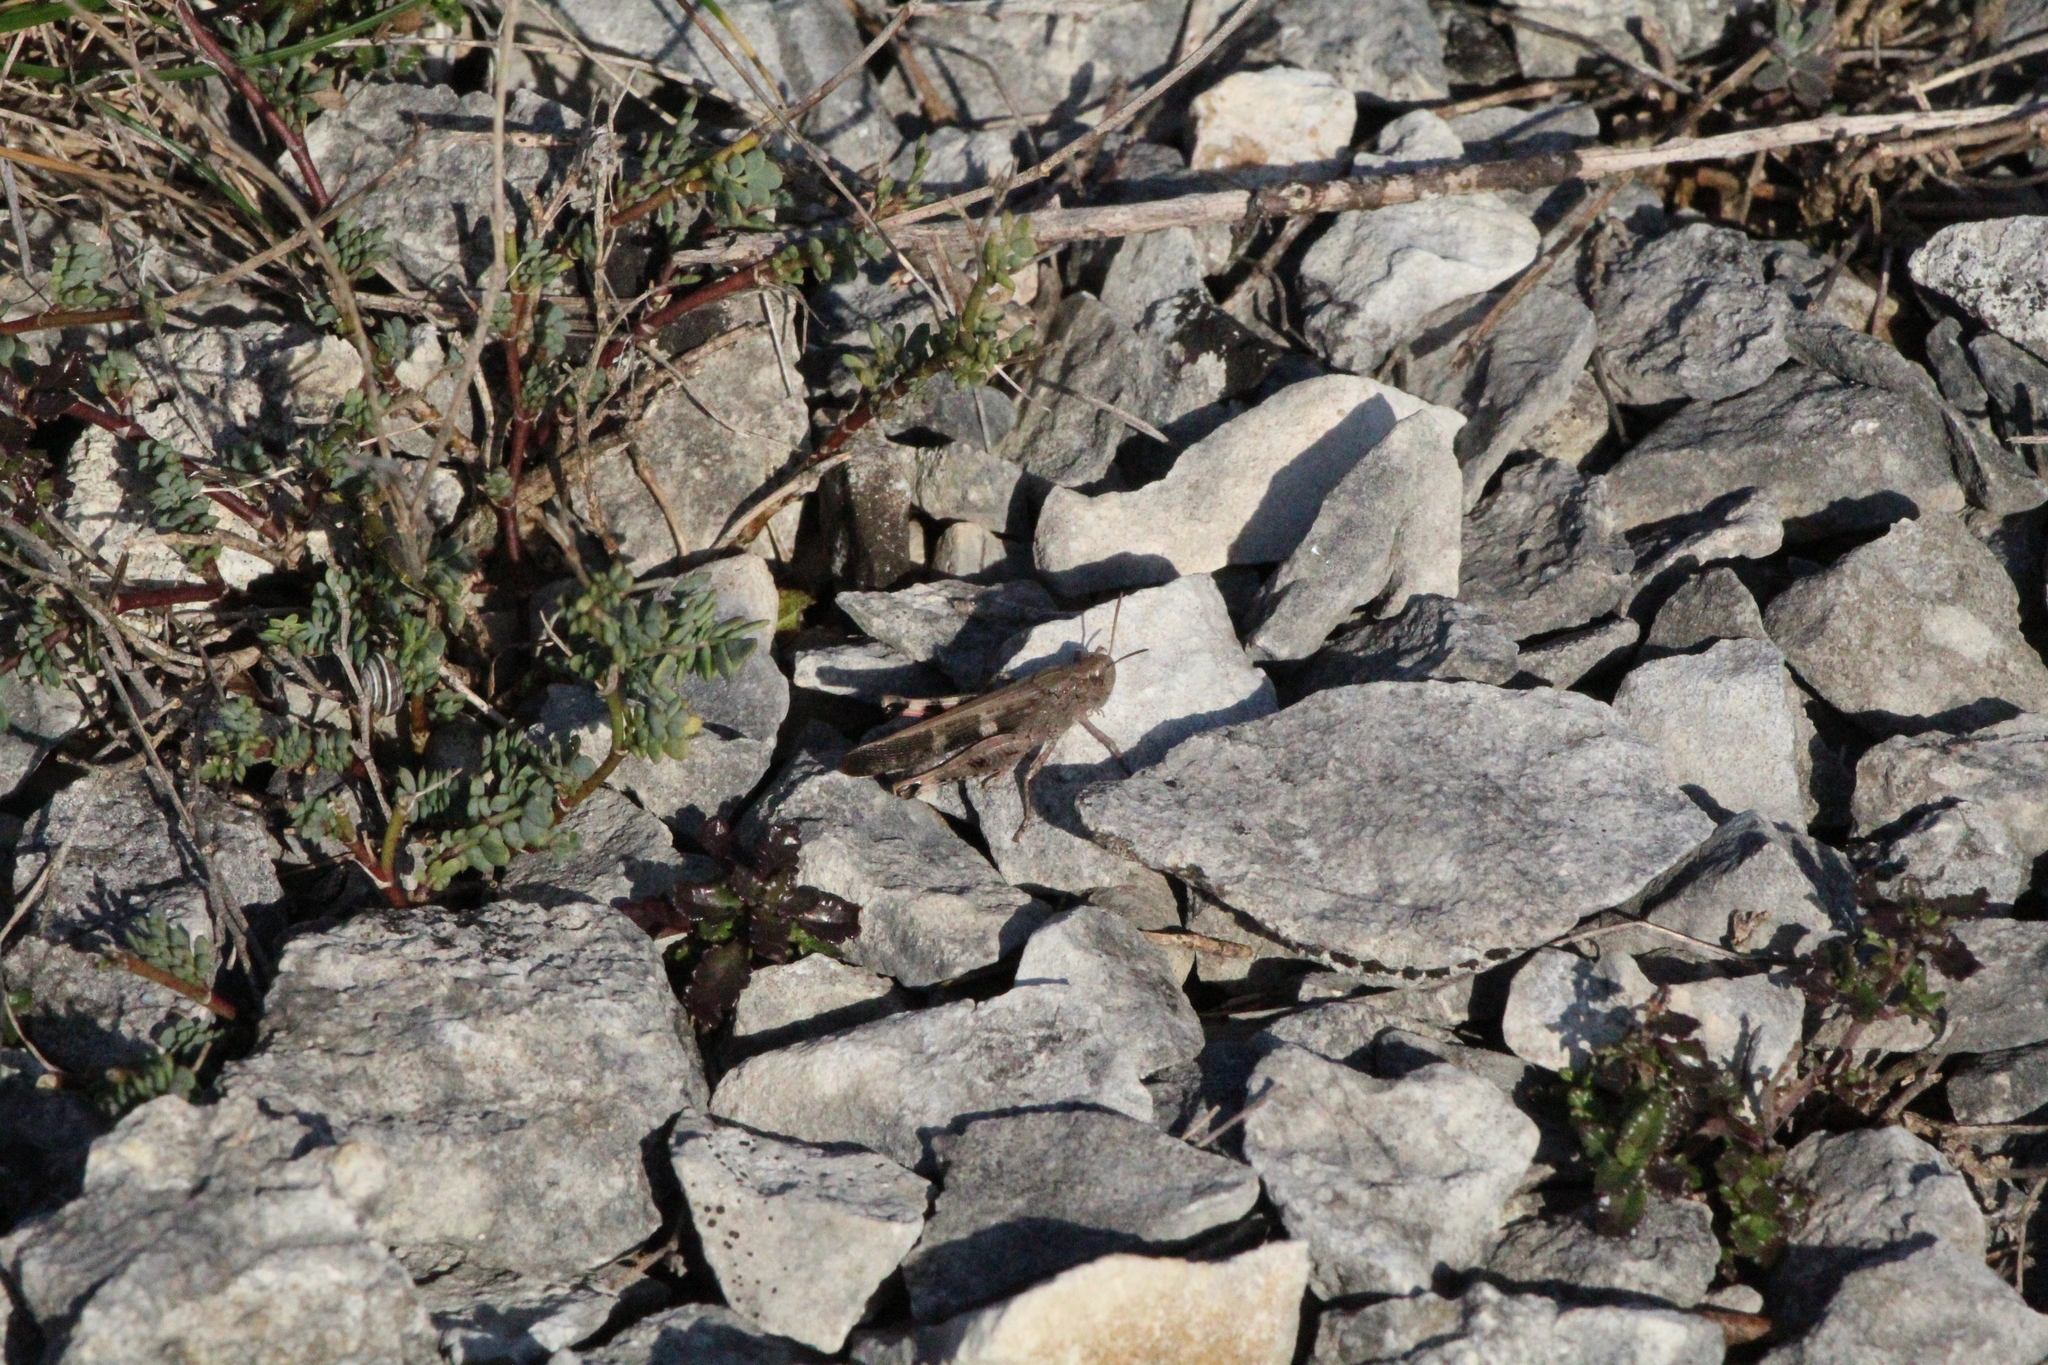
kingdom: Animalia
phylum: Arthropoda
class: Insecta
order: Orthoptera
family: Acrididae
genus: Aiolopus
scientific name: Aiolopus strepens
